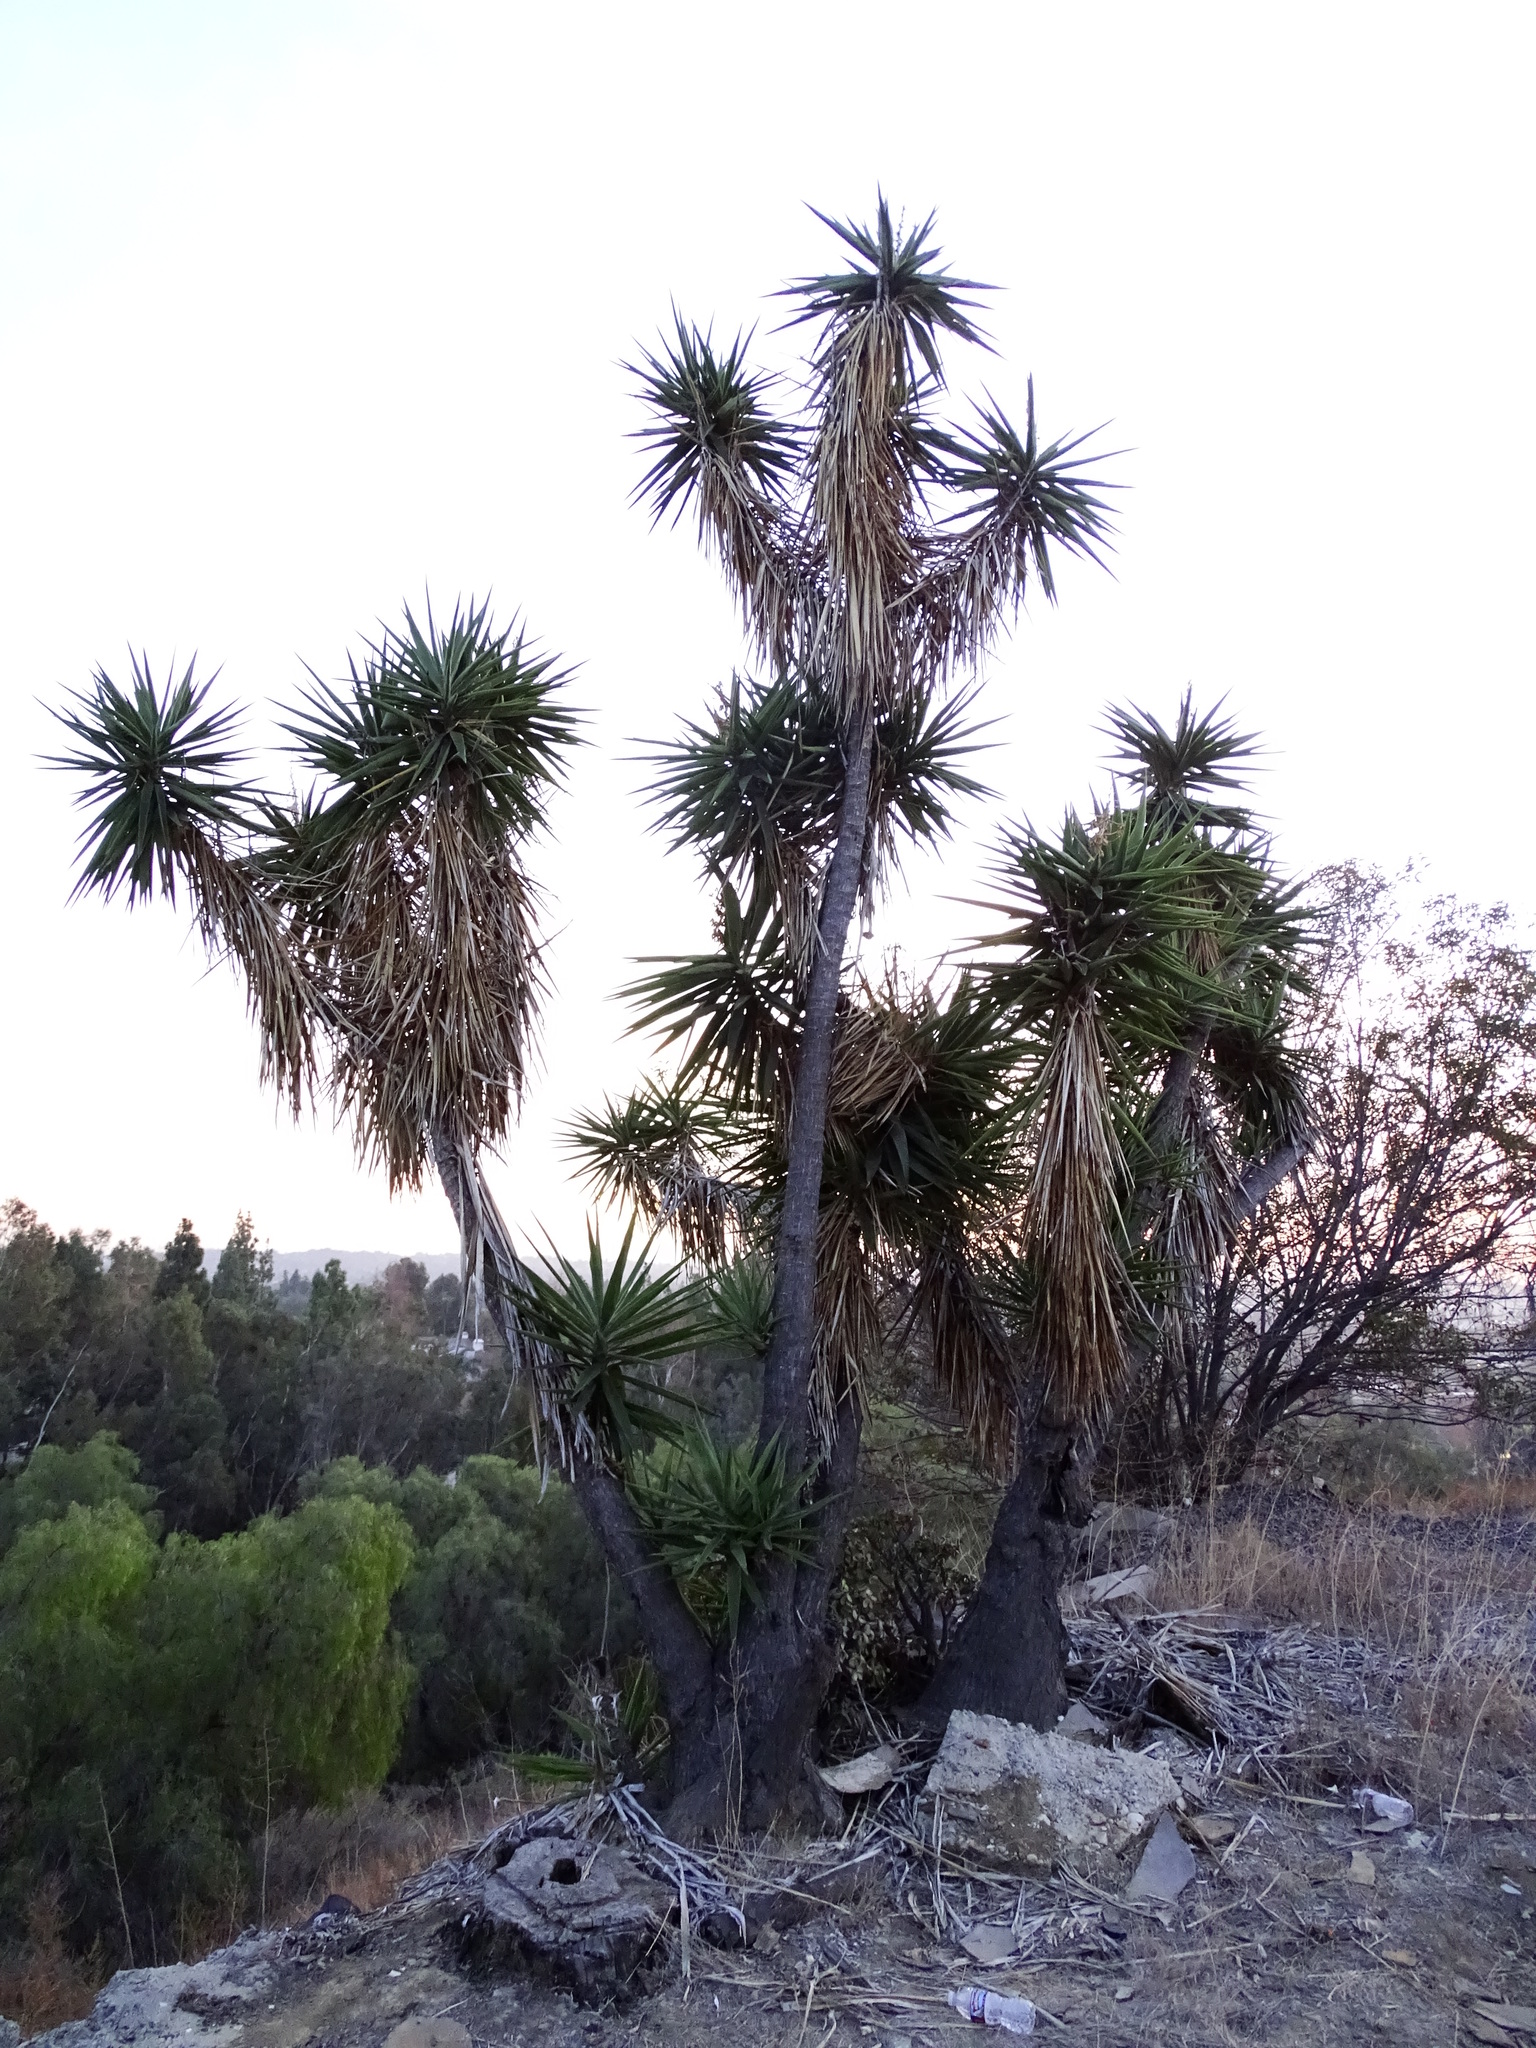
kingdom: Plantae
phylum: Tracheophyta
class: Liliopsida
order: Asparagales
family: Asparagaceae
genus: Yucca
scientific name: Yucca gigantea
